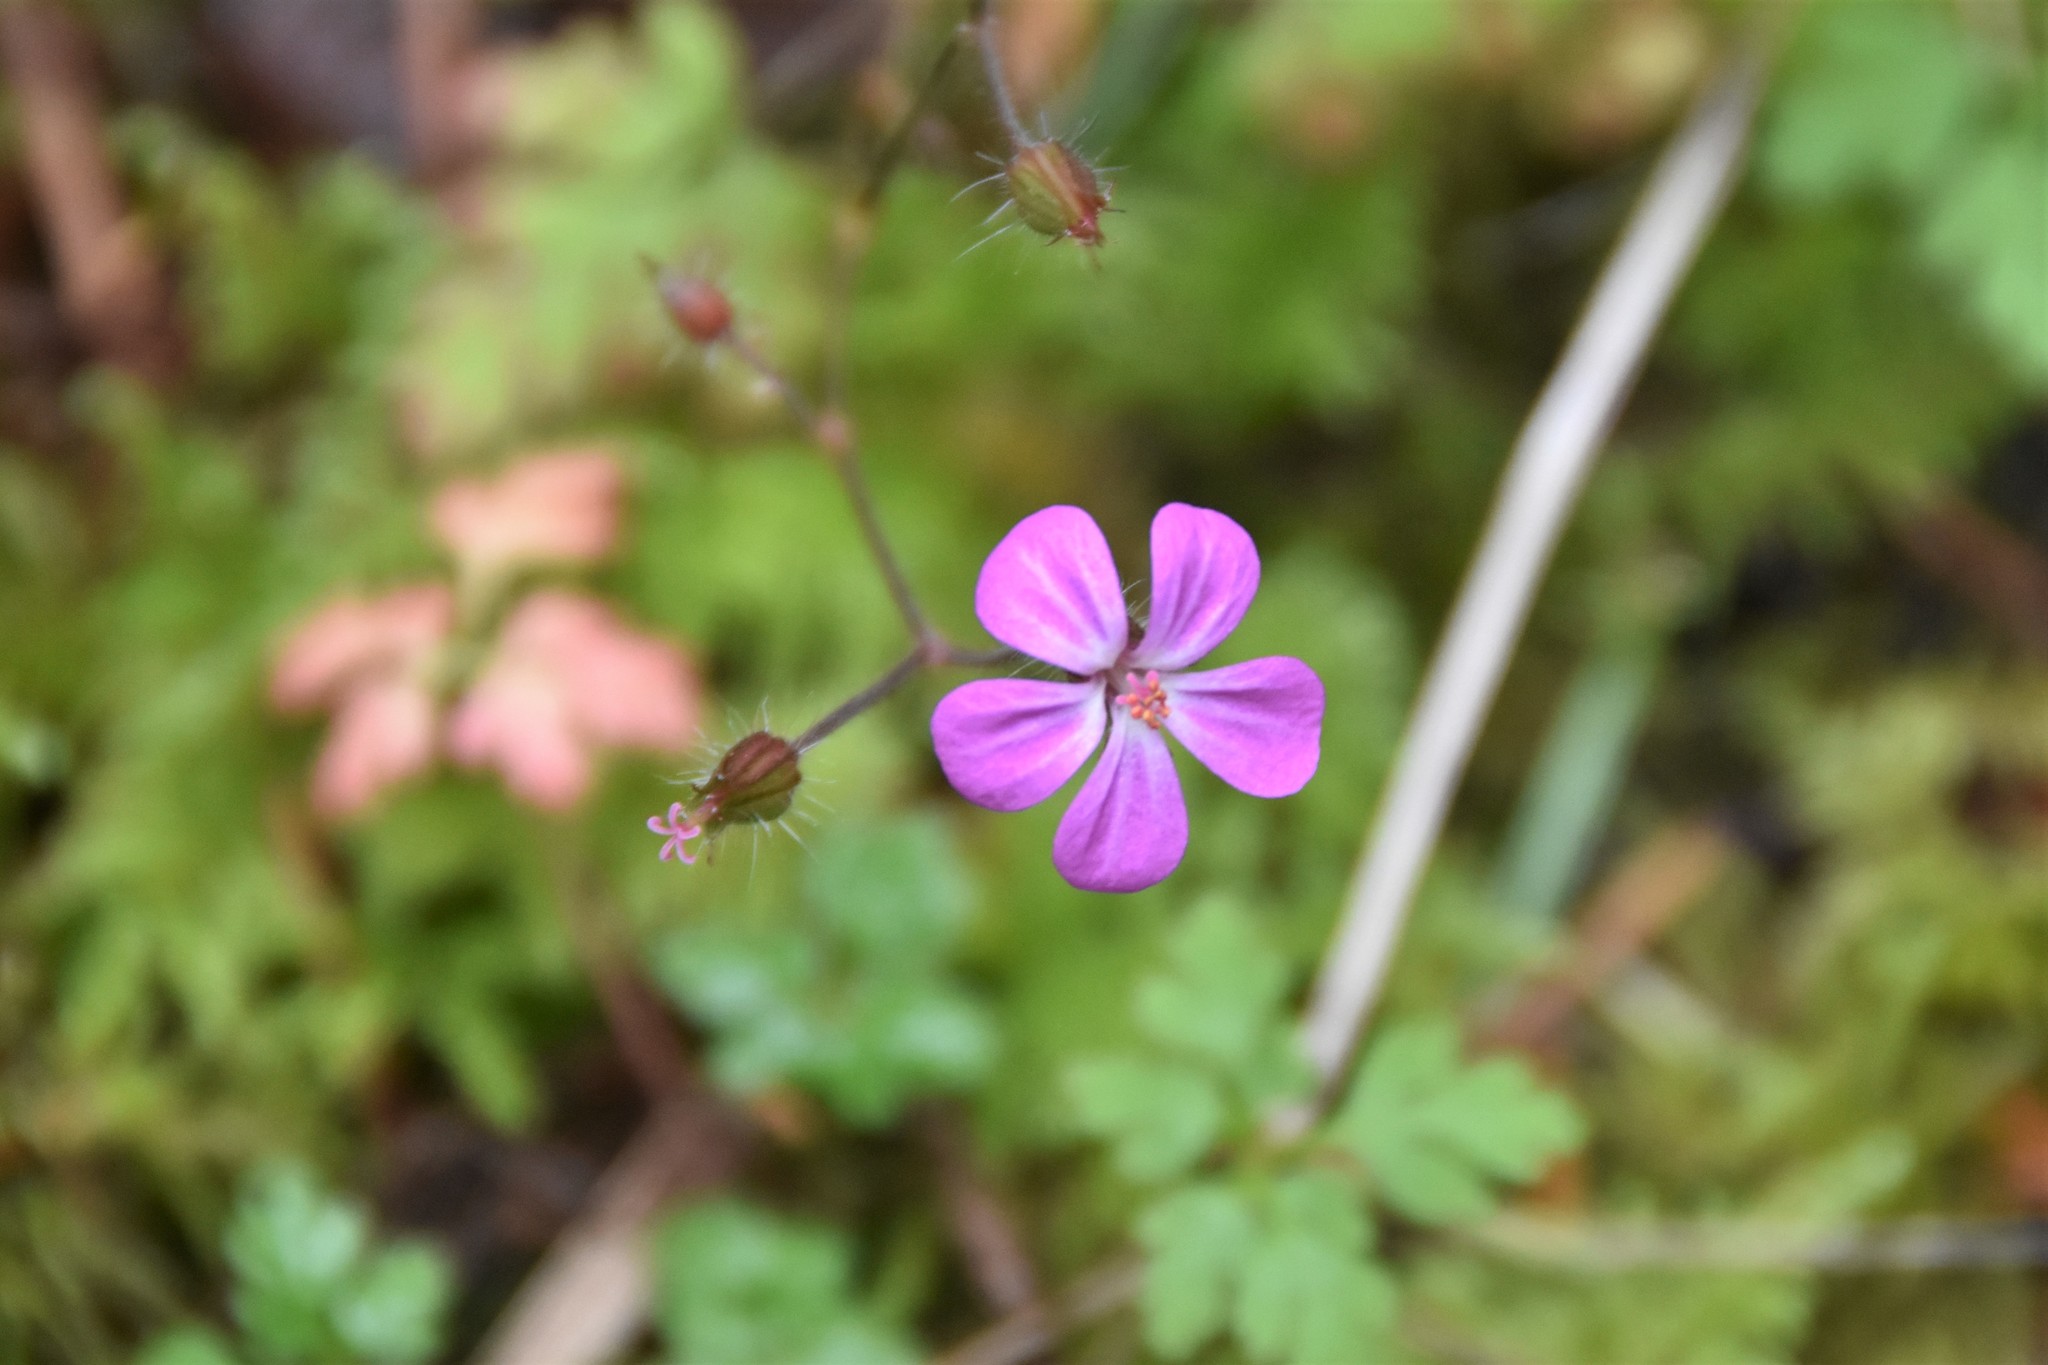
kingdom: Plantae
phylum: Tracheophyta
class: Magnoliopsida
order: Geraniales
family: Geraniaceae
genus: Geranium
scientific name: Geranium robertianum
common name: Herb-robert
